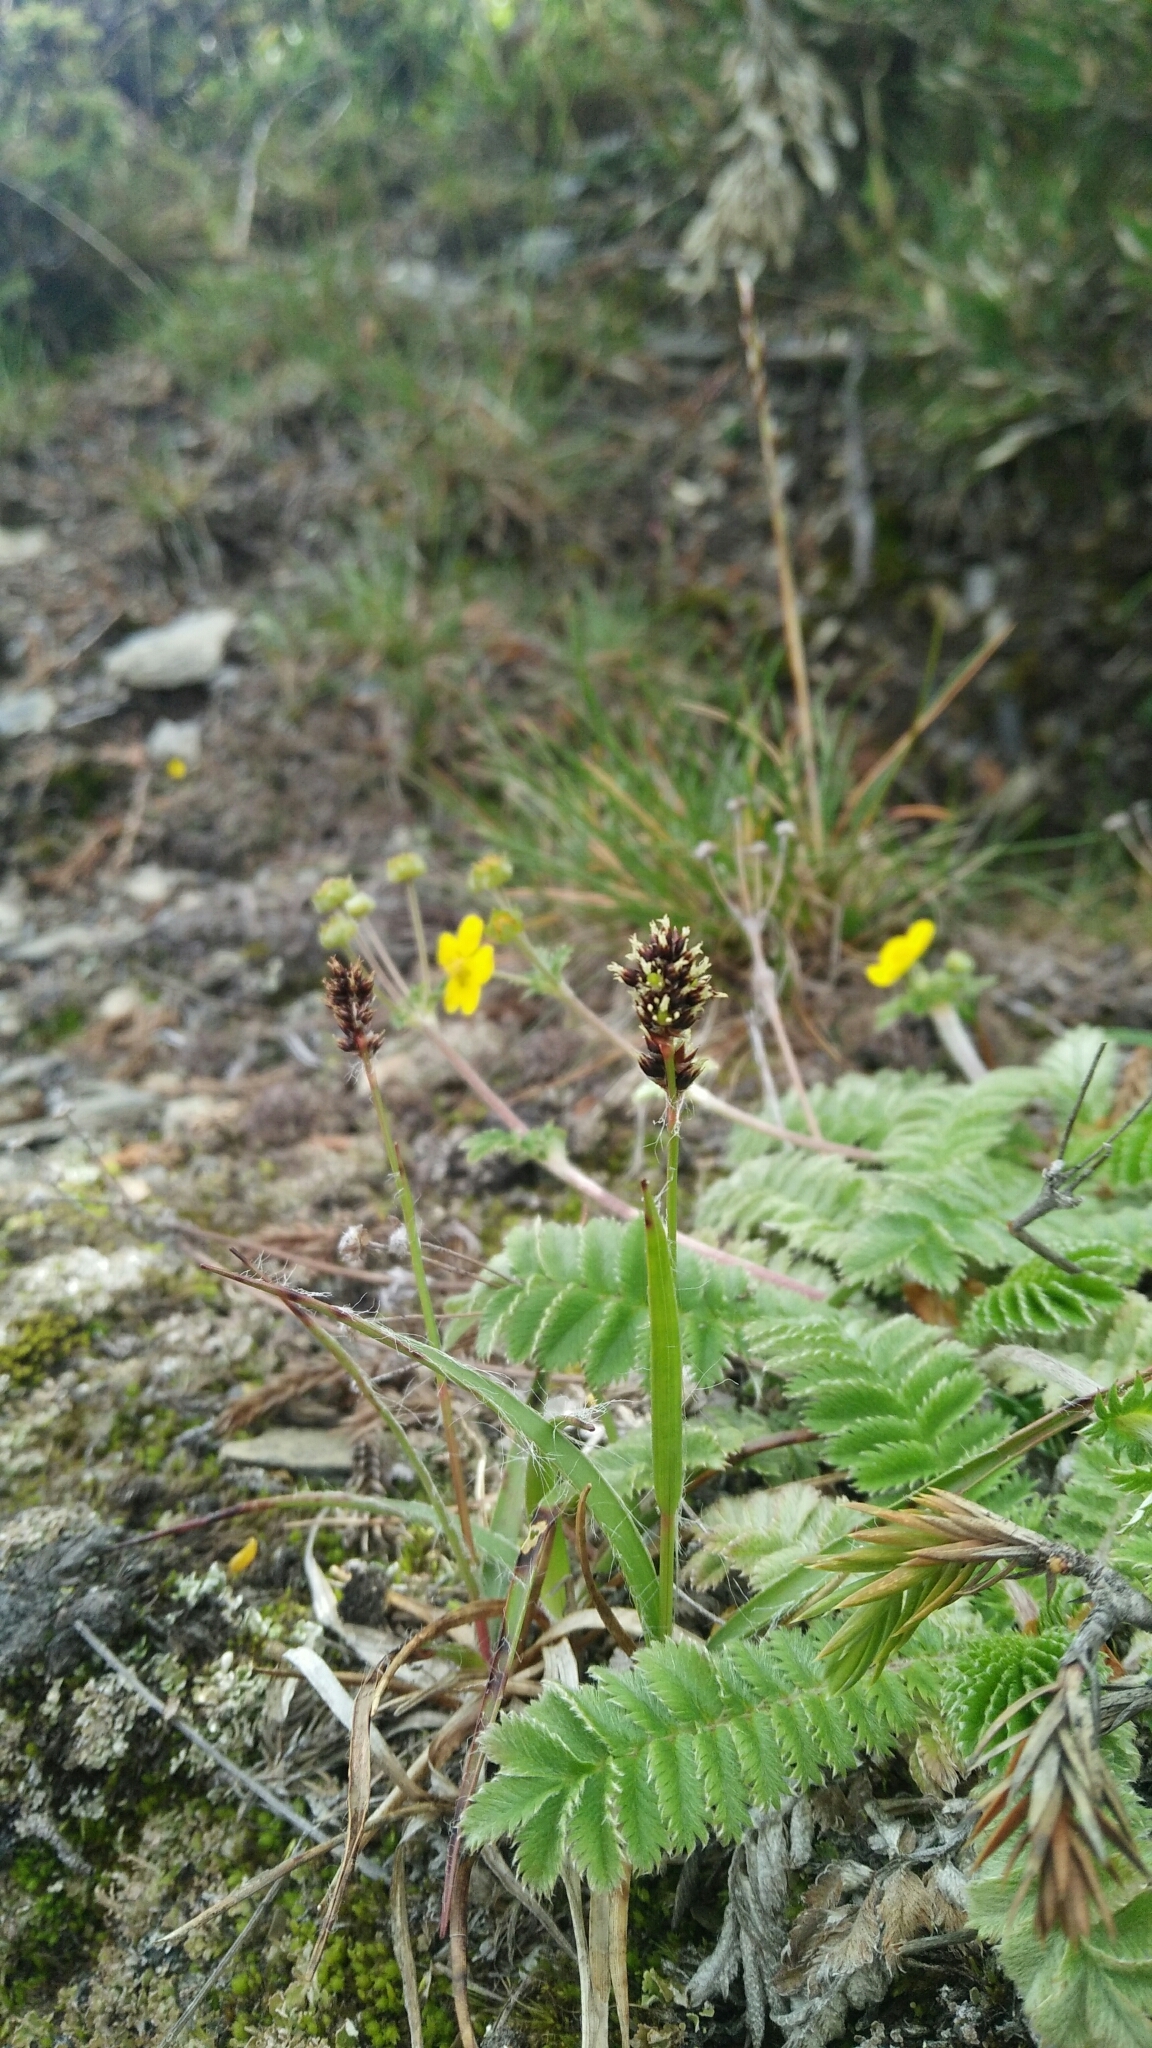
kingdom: Plantae
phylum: Tracheophyta
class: Liliopsida
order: Poales
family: Juncaceae
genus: Luzula
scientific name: Luzula taiwaniana
